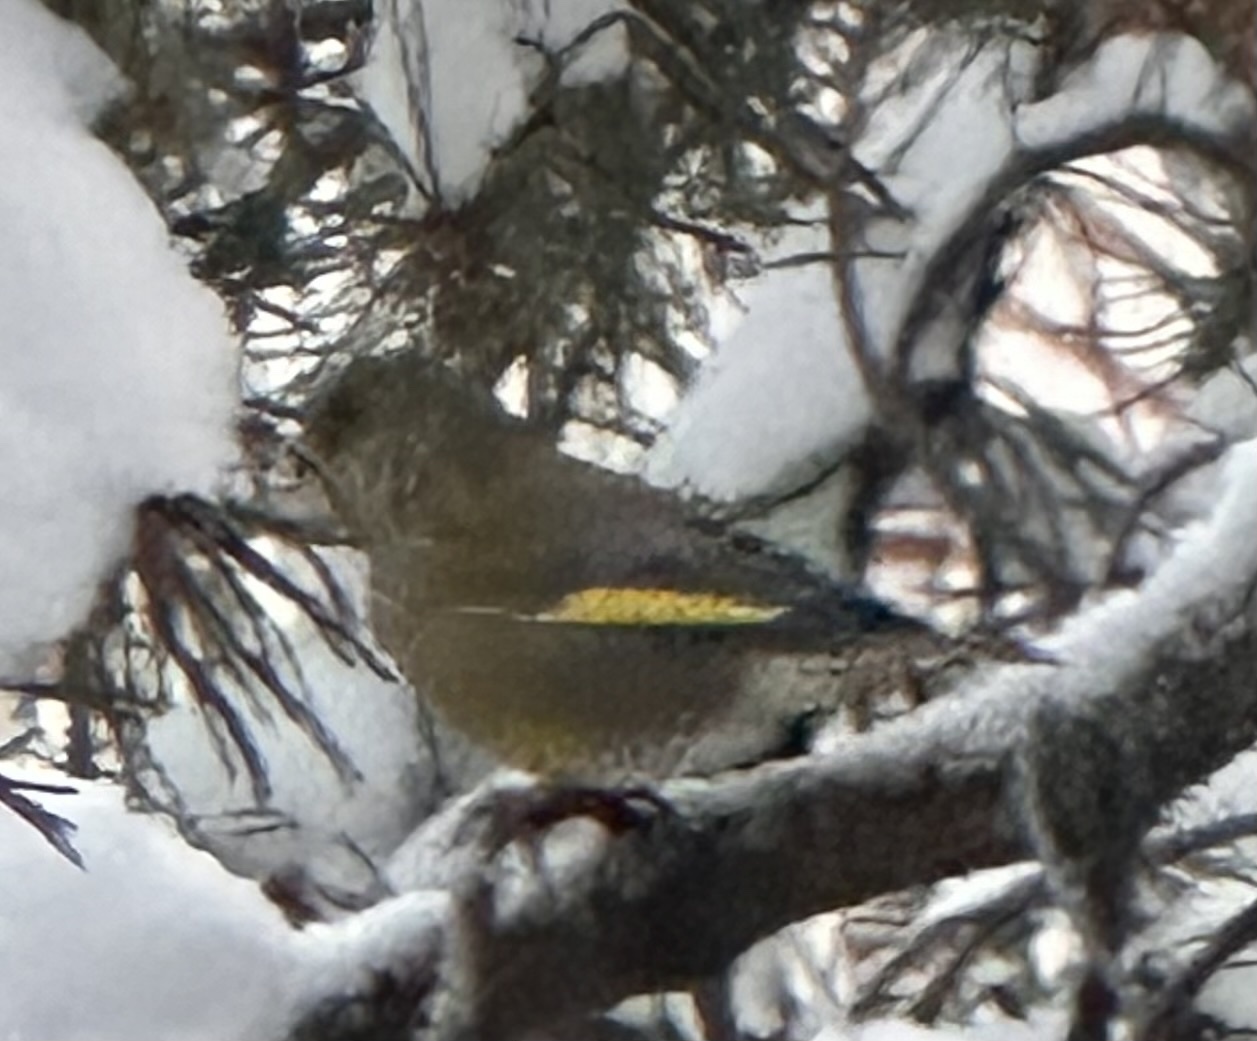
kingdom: Plantae
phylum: Tracheophyta
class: Liliopsida
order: Poales
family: Poaceae
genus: Chloris
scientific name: Chloris chloris
